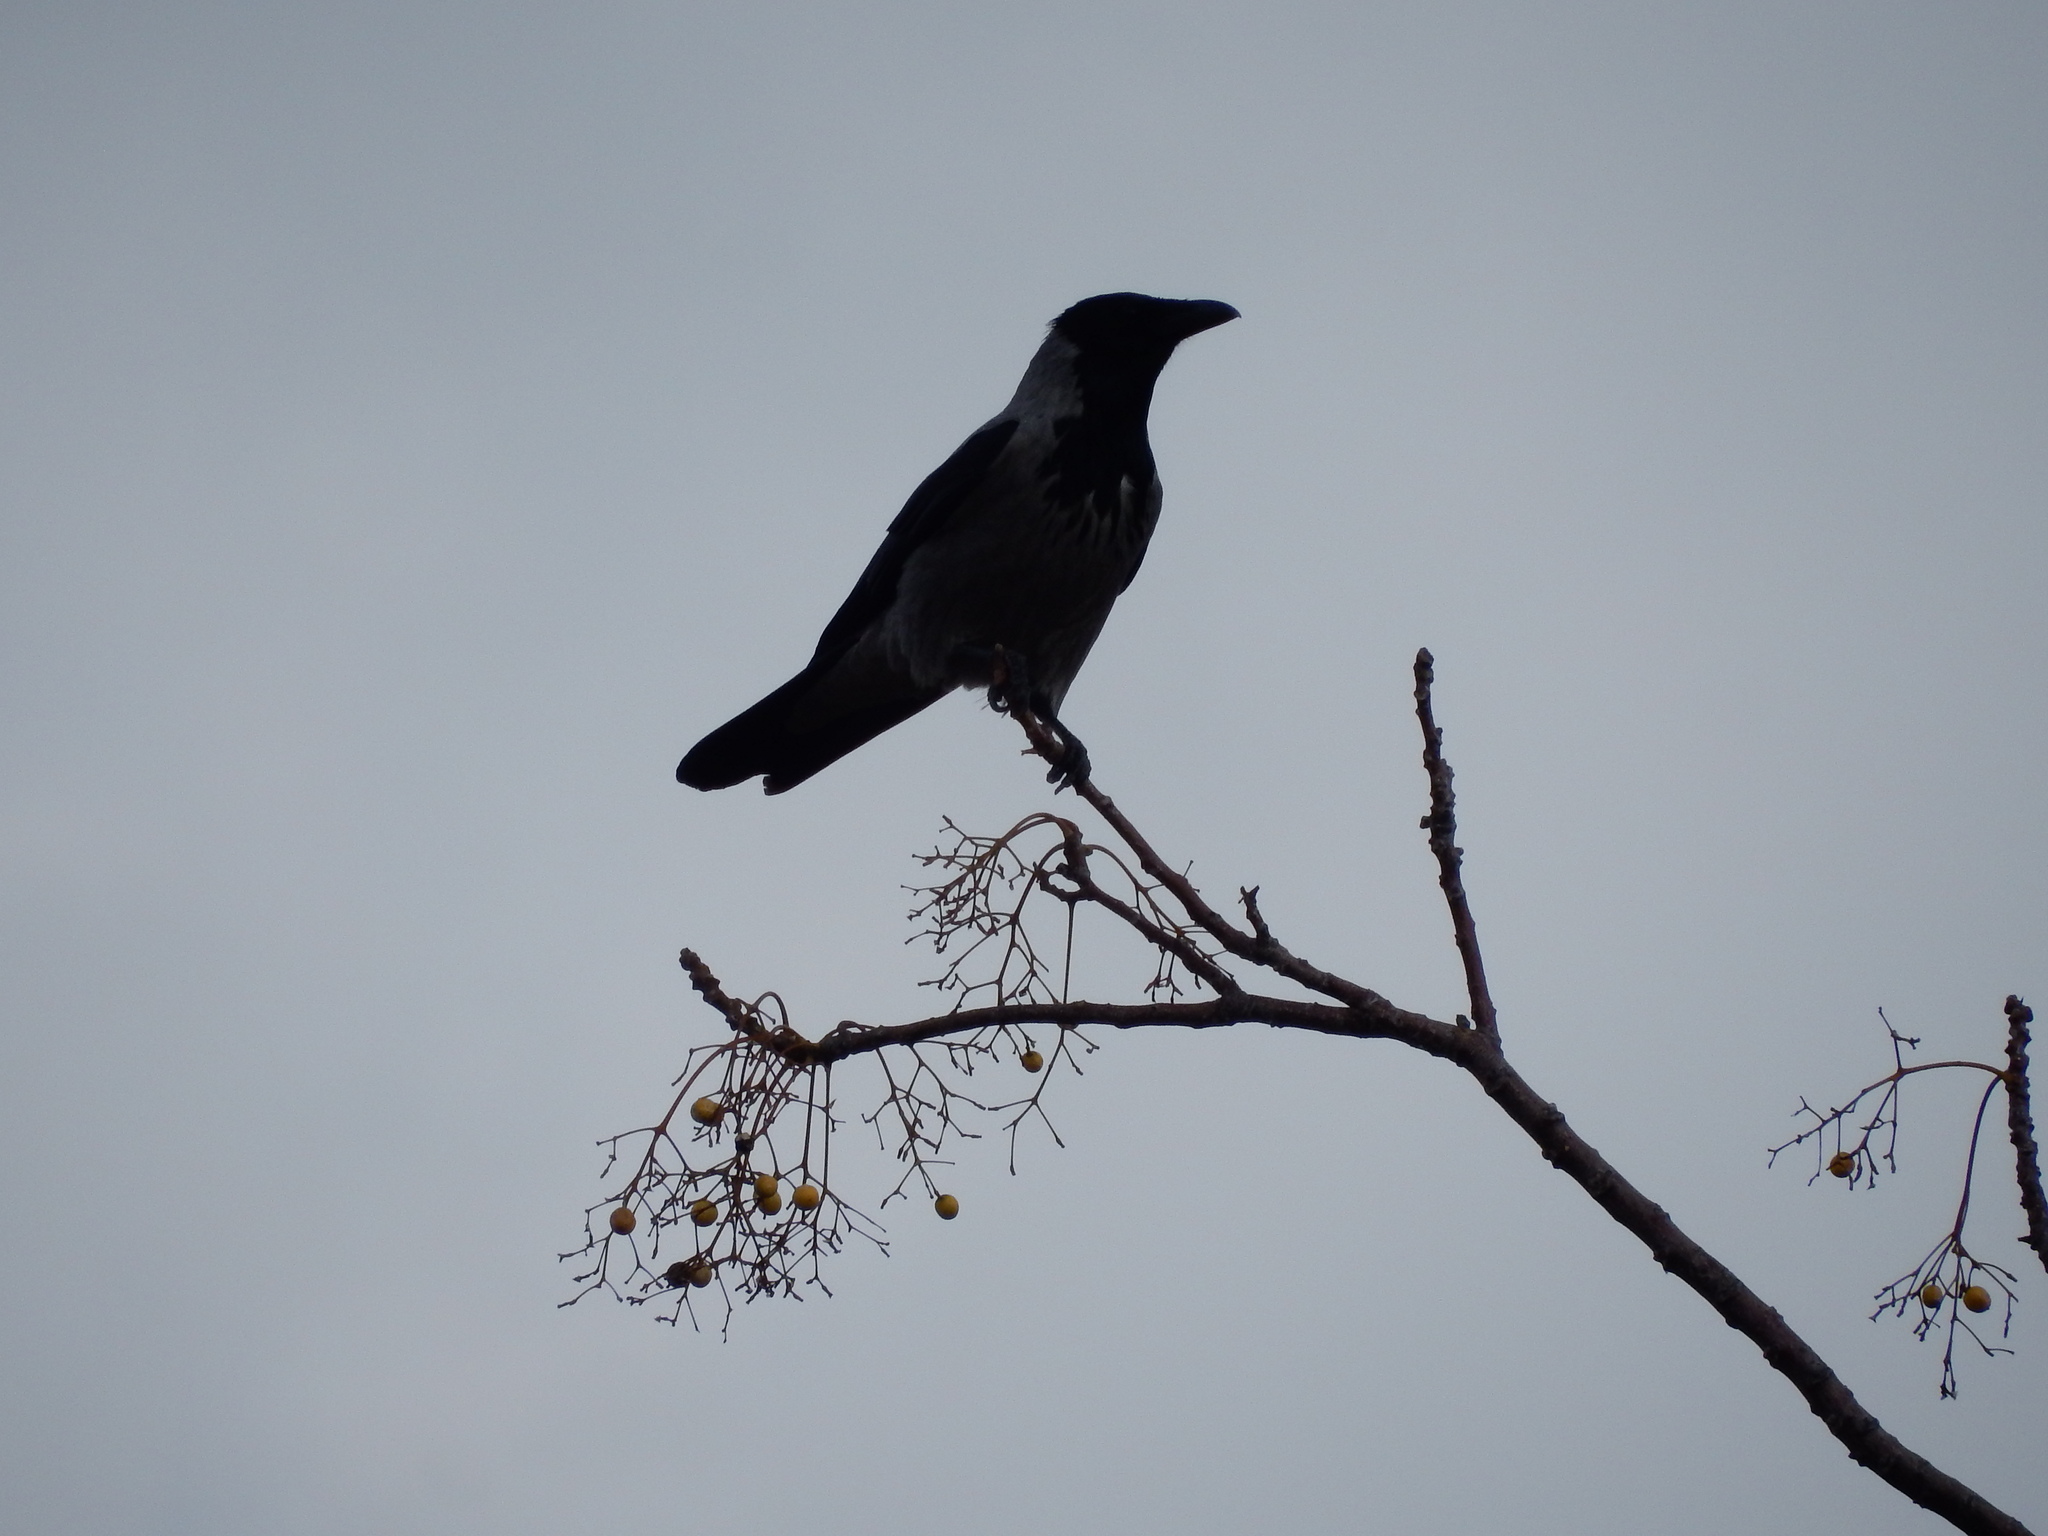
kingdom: Animalia
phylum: Chordata
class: Aves
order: Passeriformes
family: Corvidae
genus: Corvus
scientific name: Corvus cornix
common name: Hooded crow
